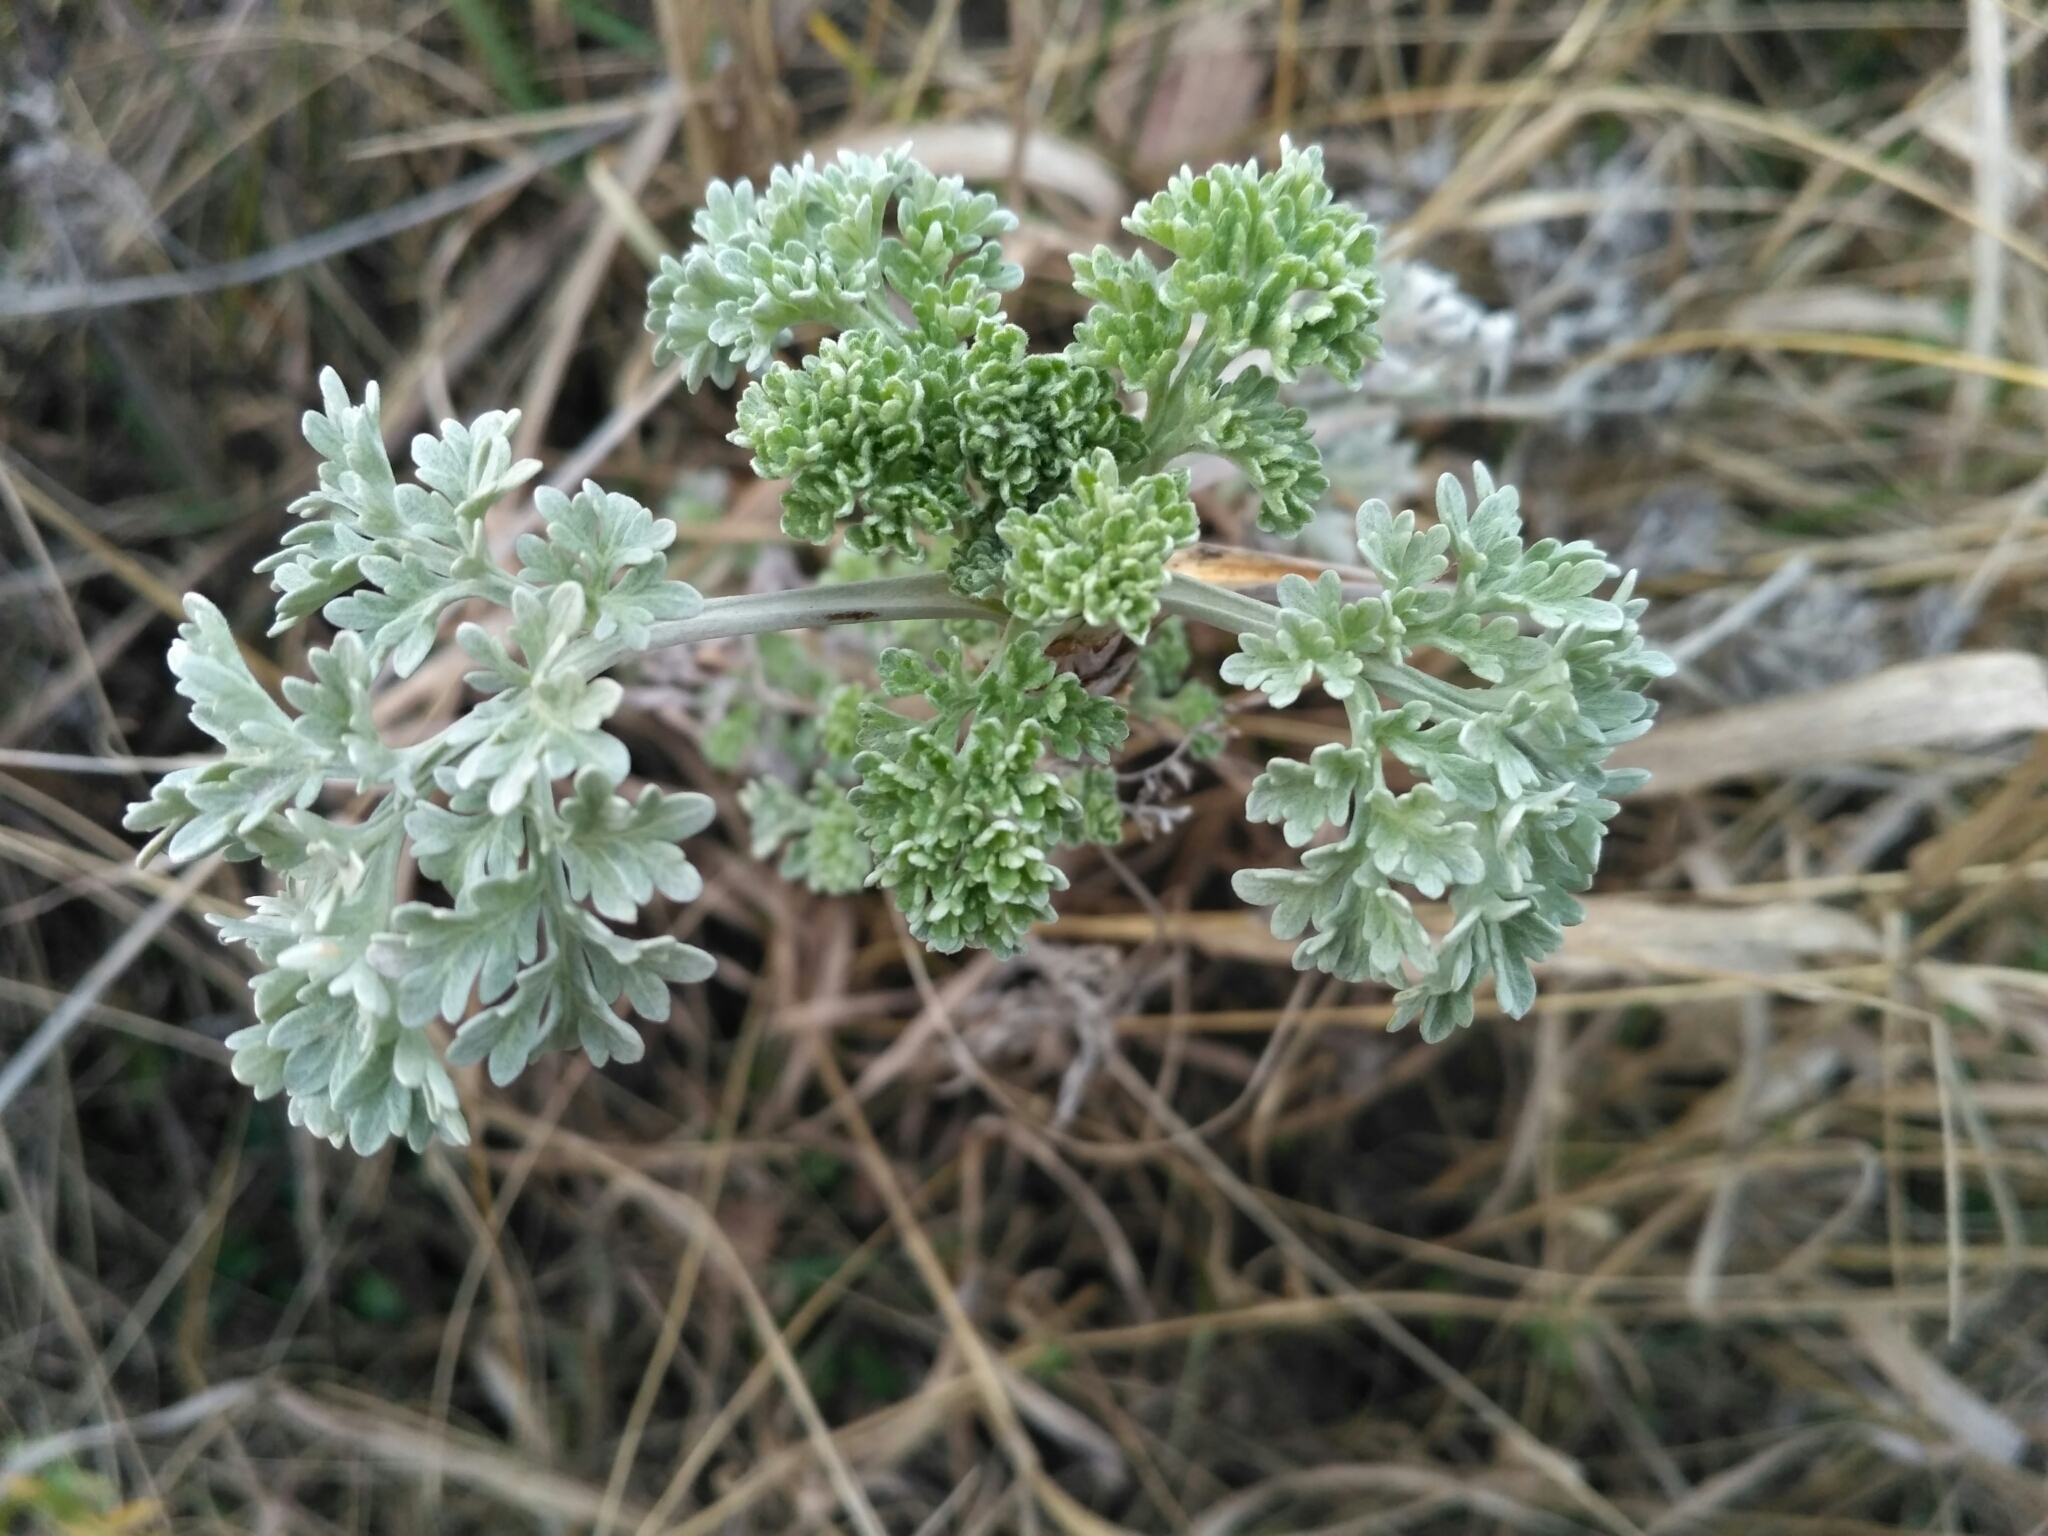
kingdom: Plantae
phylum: Tracheophyta
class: Magnoliopsida
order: Asterales
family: Asteraceae
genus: Artemisia
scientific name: Artemisia absinthium
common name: Wormwood
